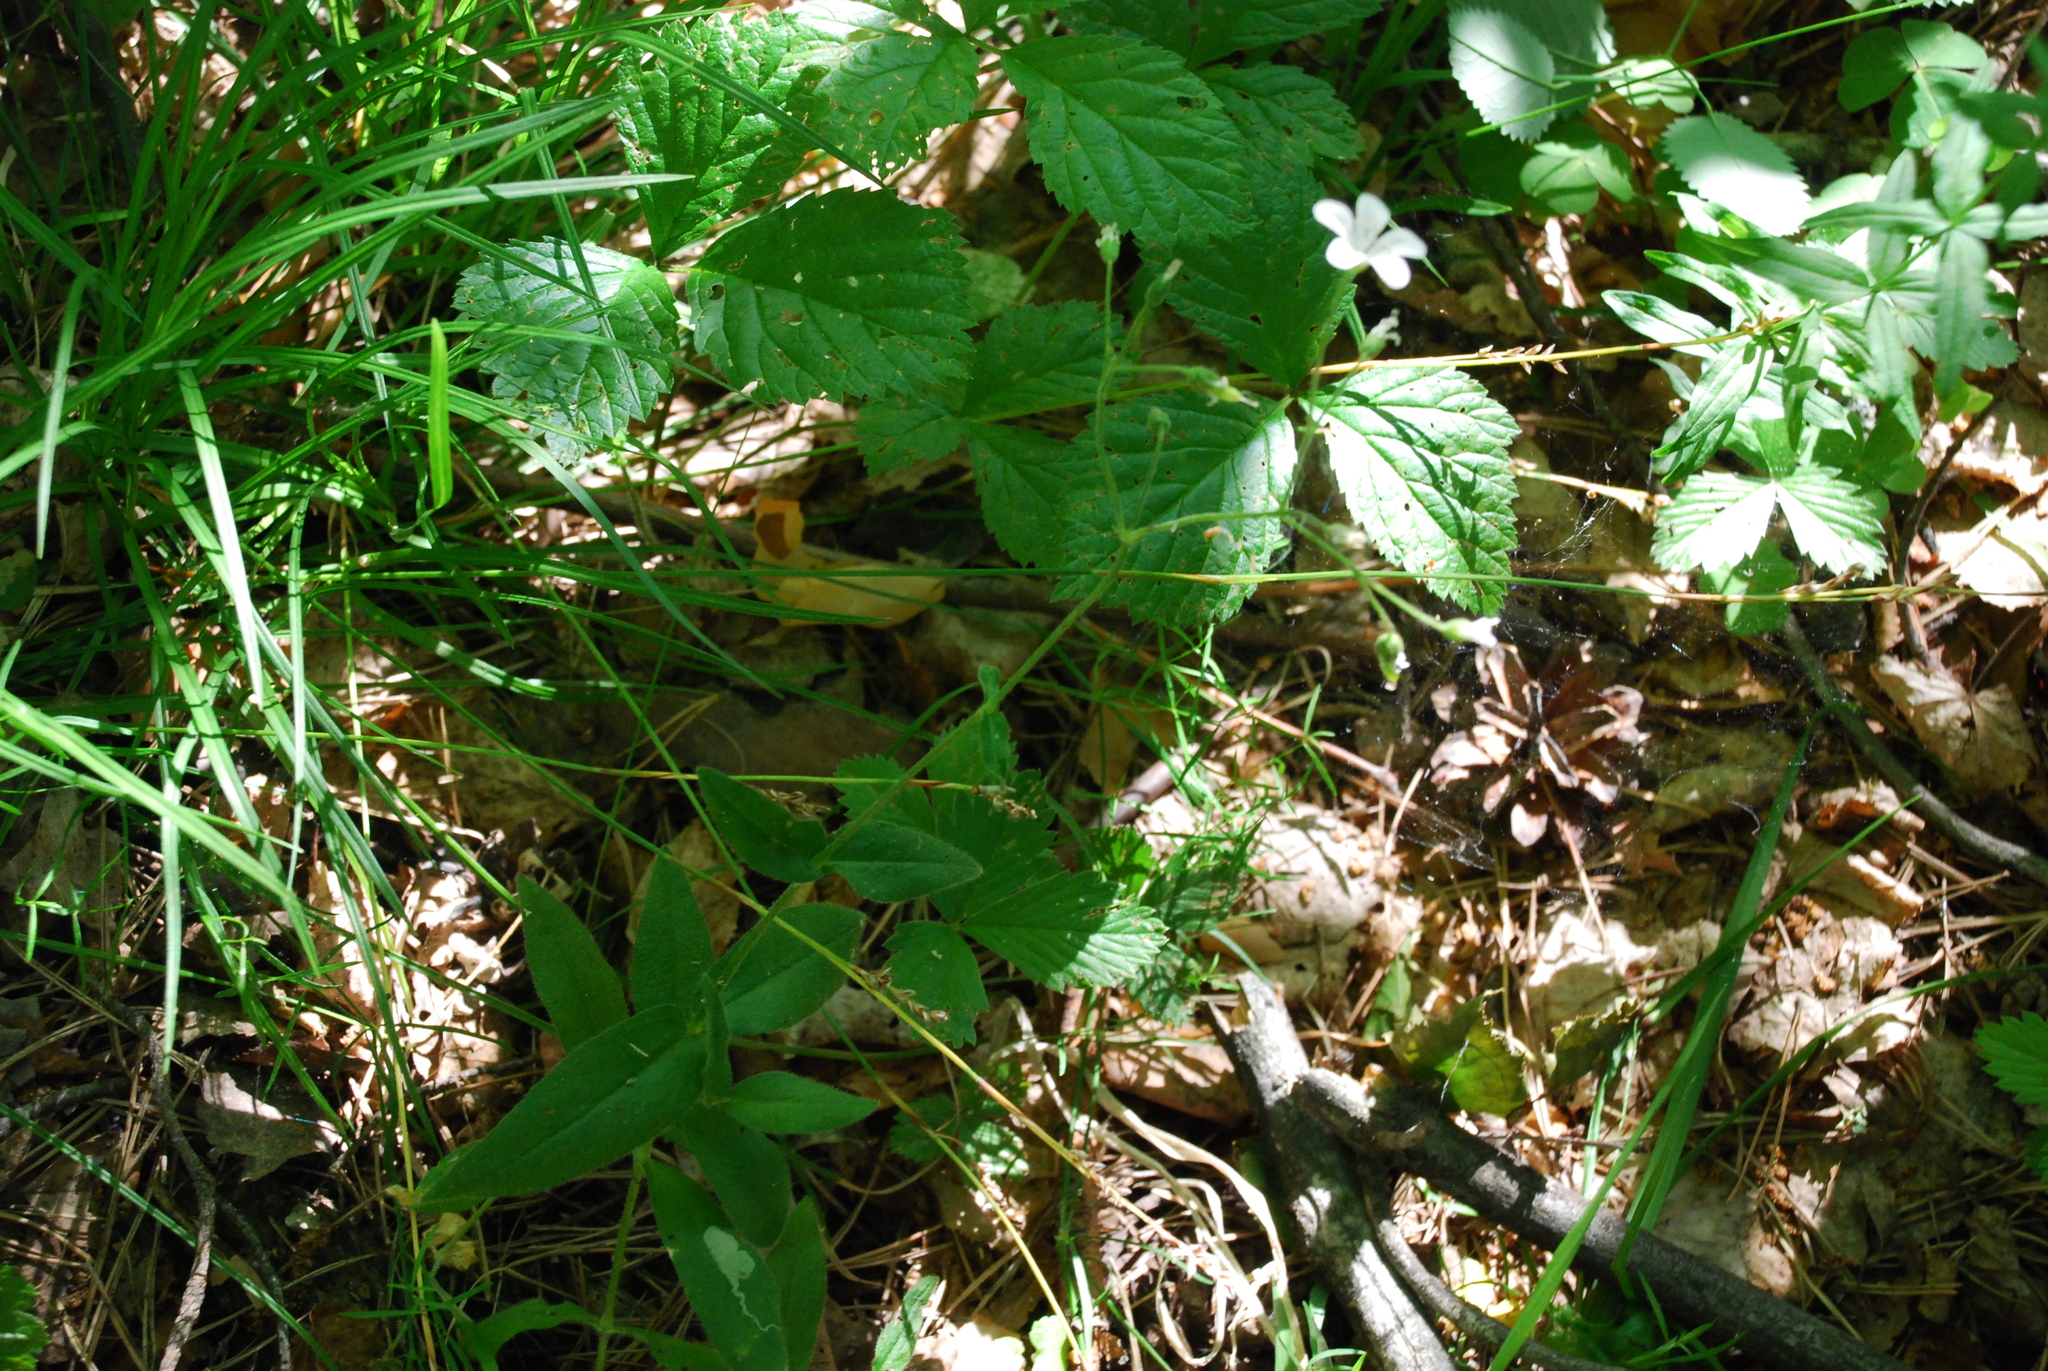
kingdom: Plantae
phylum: Tracheophyta
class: Magnoliopsida
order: Caryophyllales
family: Caryophyllaceae
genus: Cerastium
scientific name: Cerastium pauciflorum
